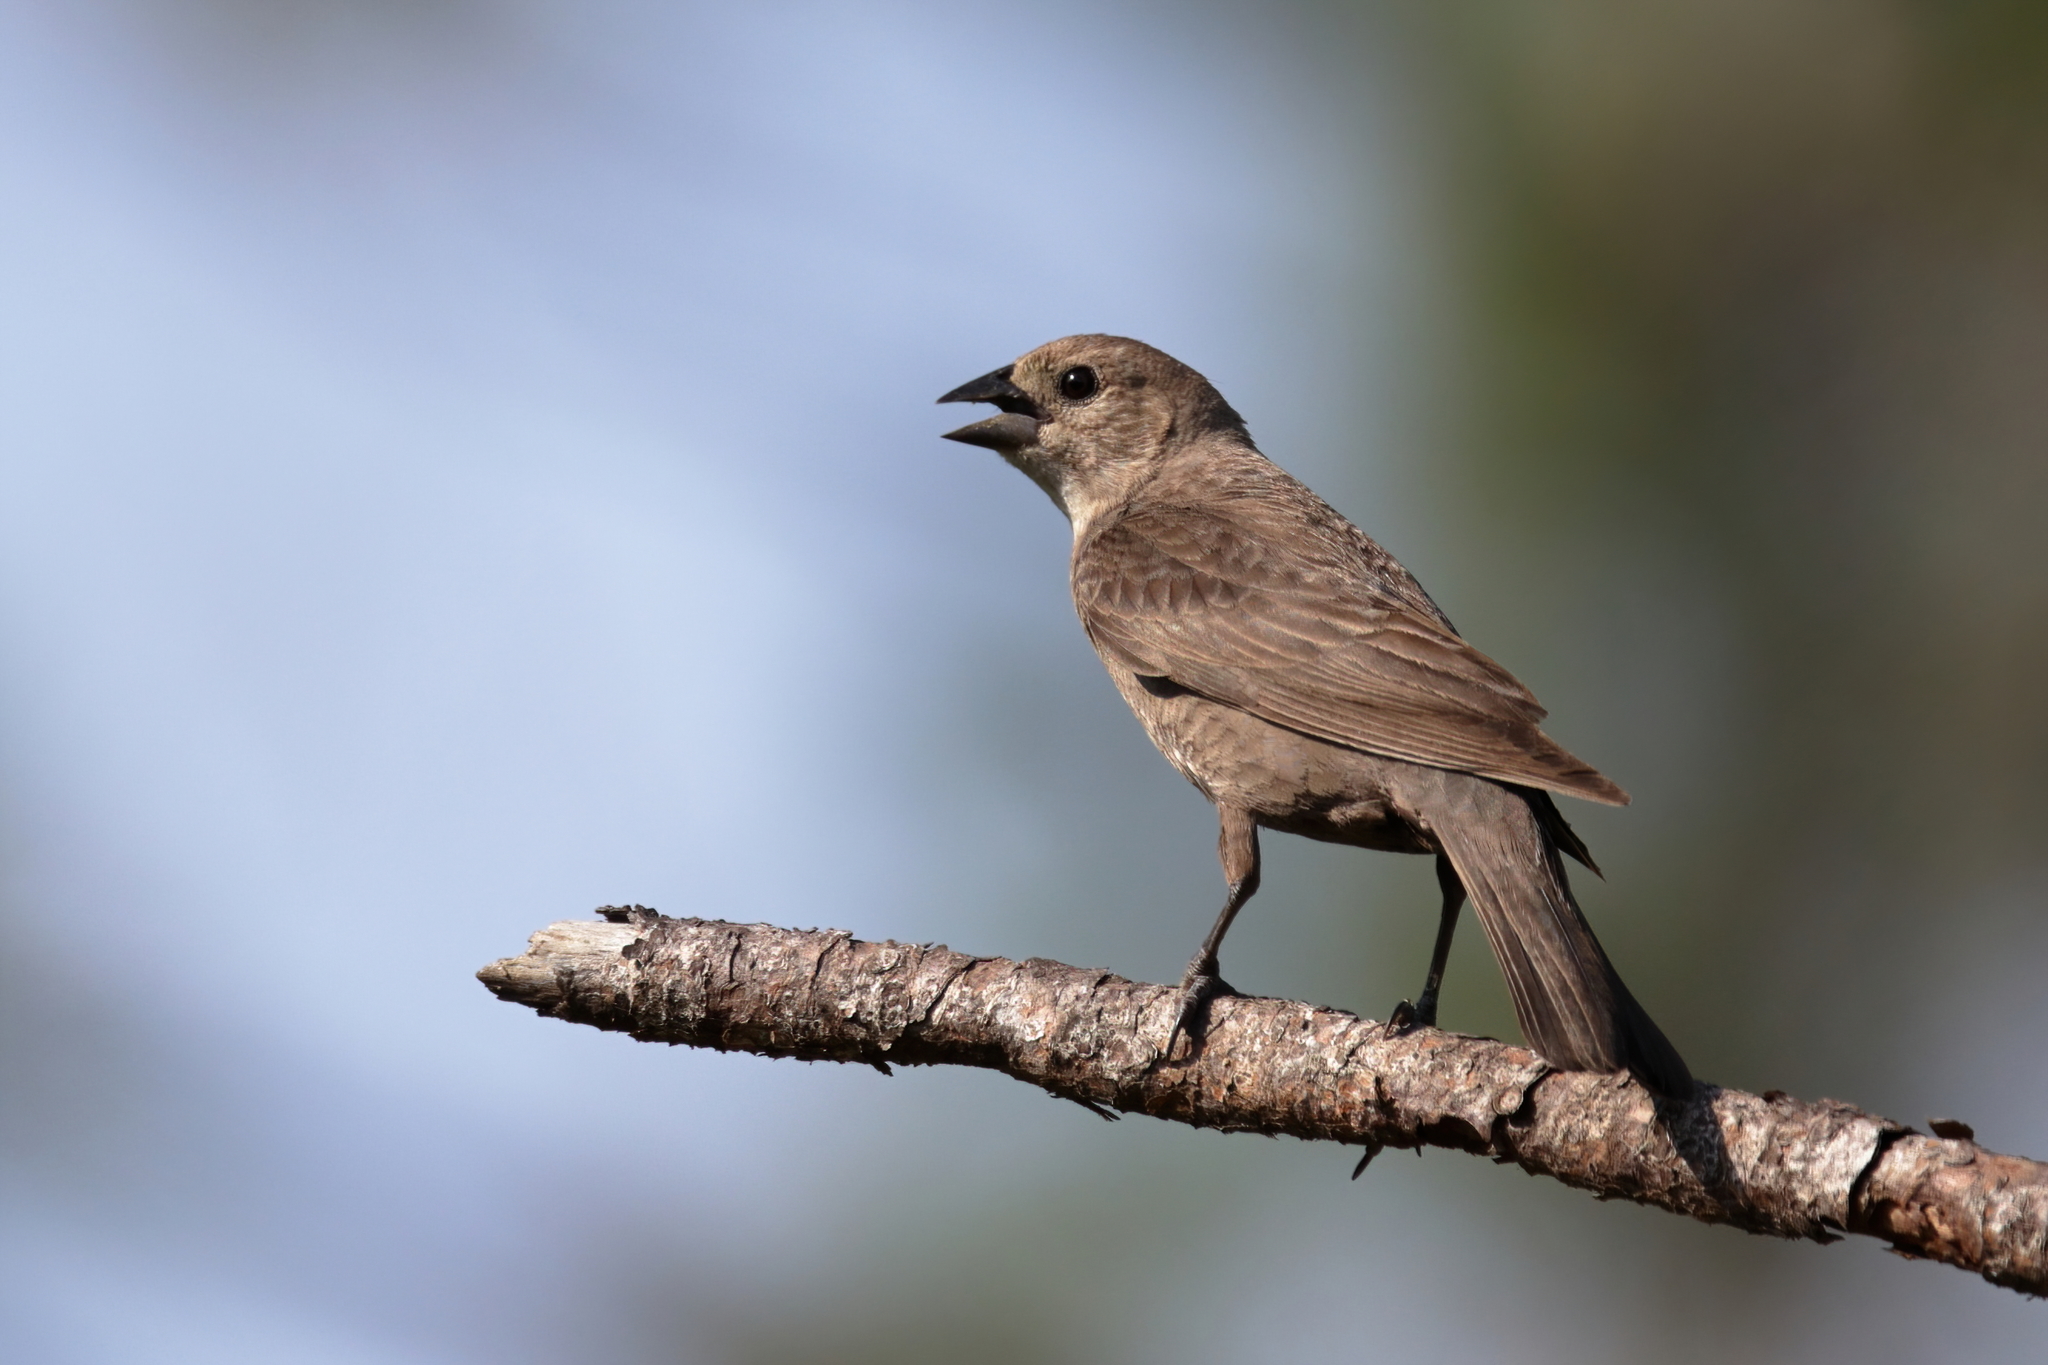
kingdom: Animalia
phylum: Chordata
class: Aves
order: Passeriformes
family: Icteridae
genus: Molothrus
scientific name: Molothrus ater
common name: Brown-headed cowbird
